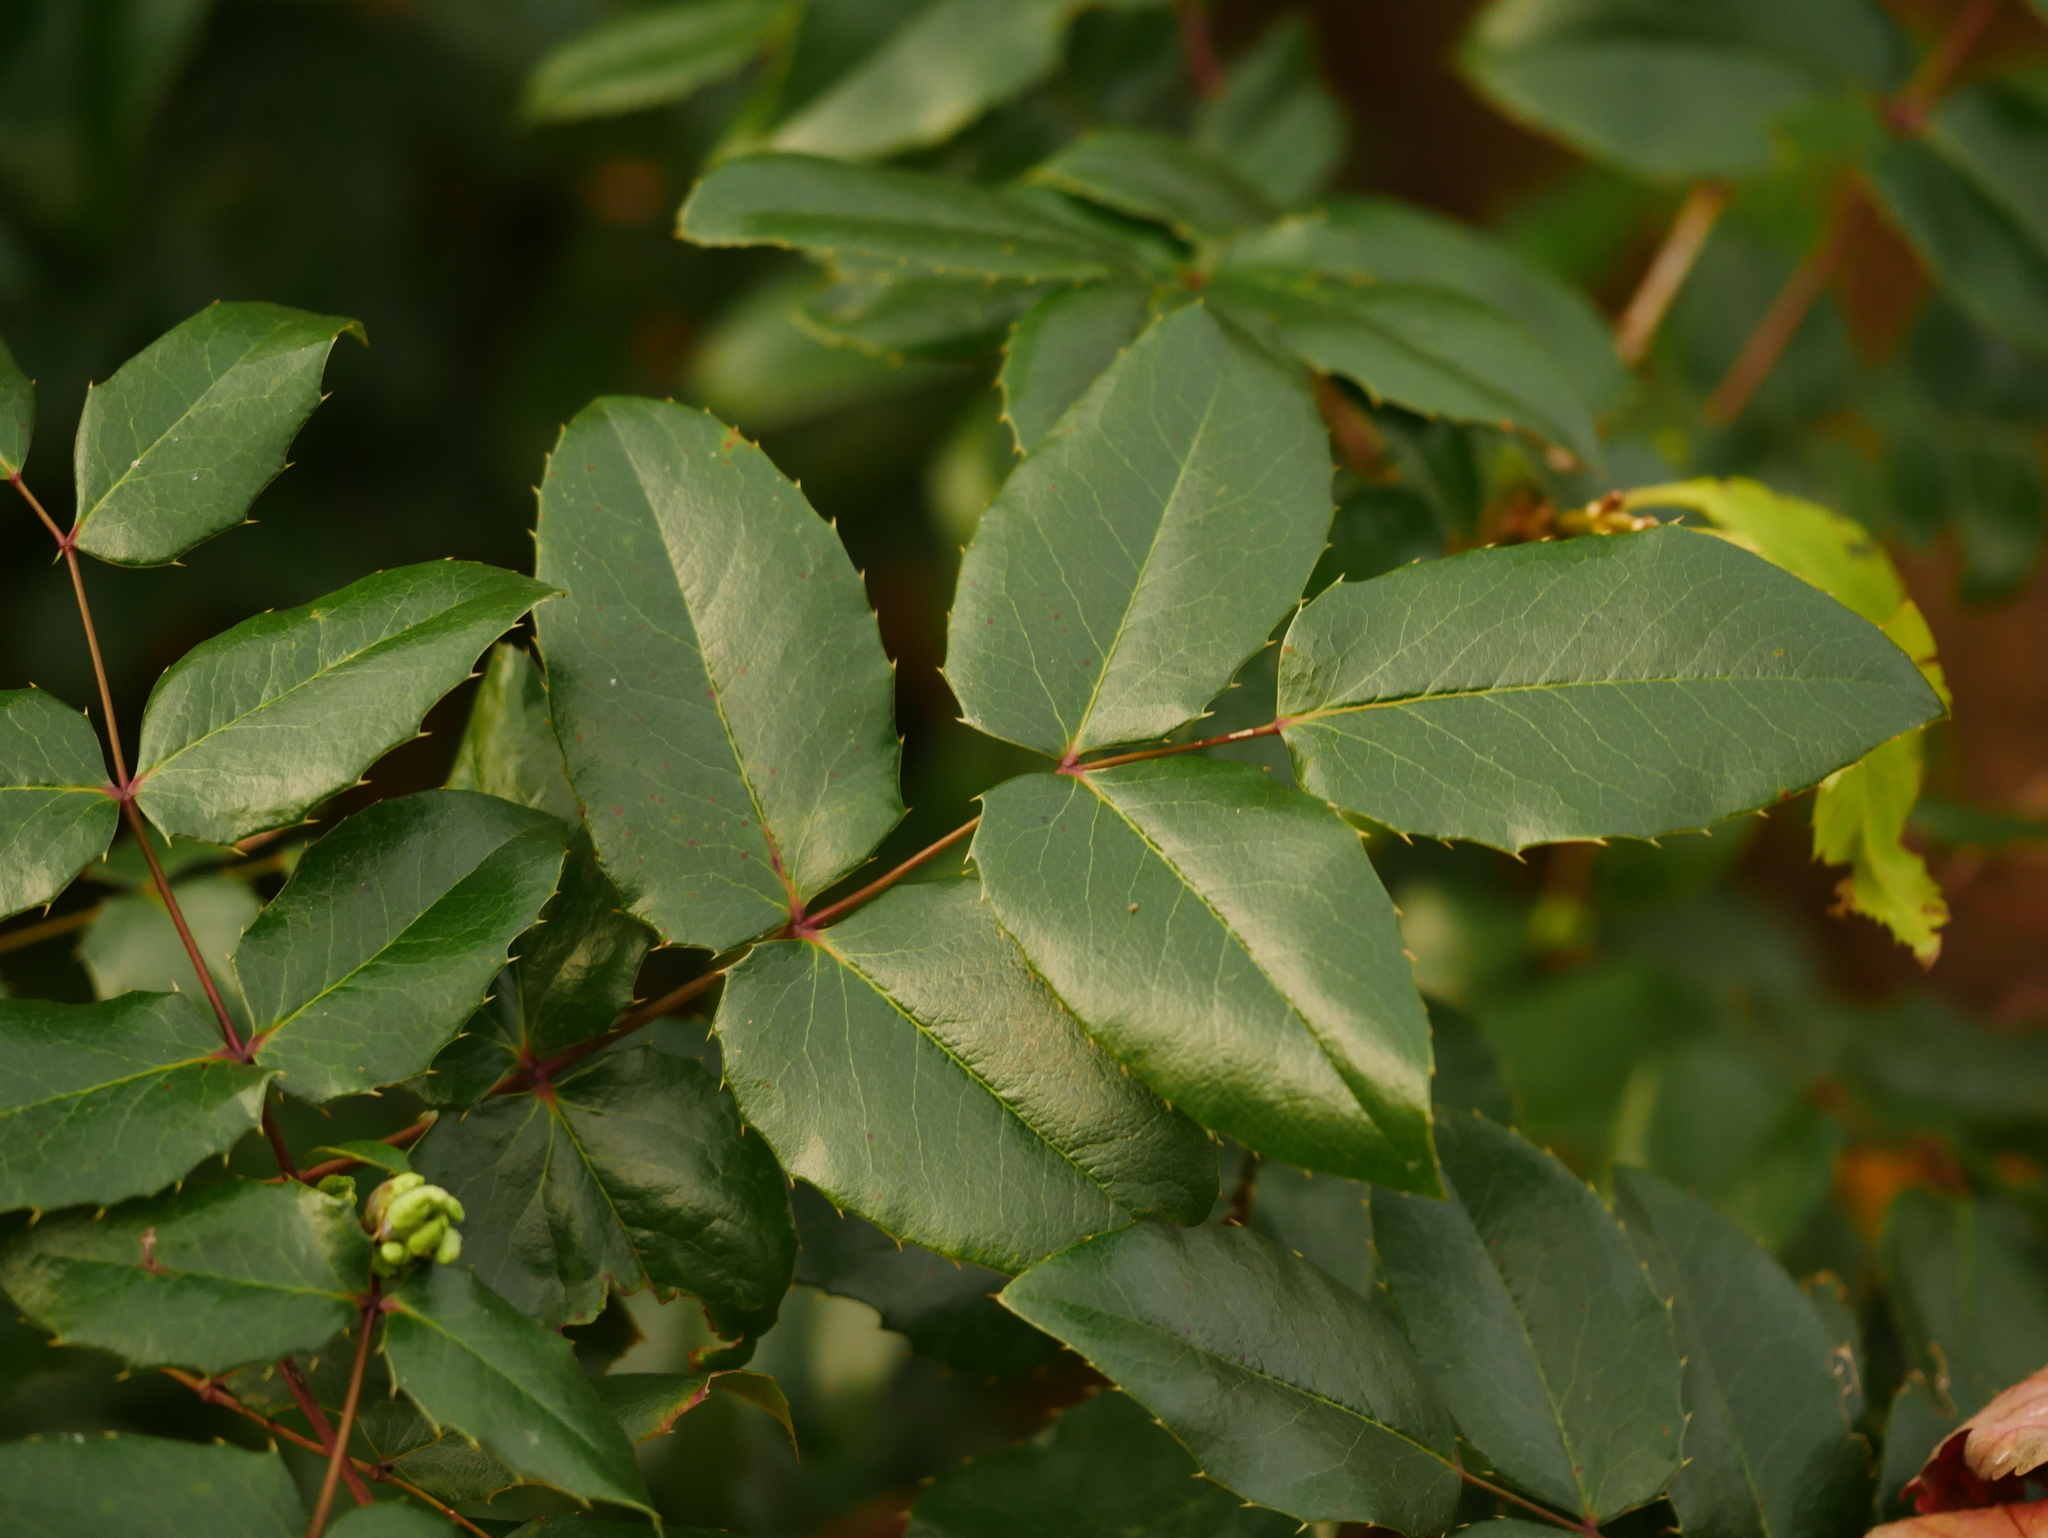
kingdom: Plantae
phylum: Tracheophyta
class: Magnoliopsida
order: Ranunculales
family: Berberidaceae
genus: Mahonia
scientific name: Mahonia aquifolium
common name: Oregon-grape
